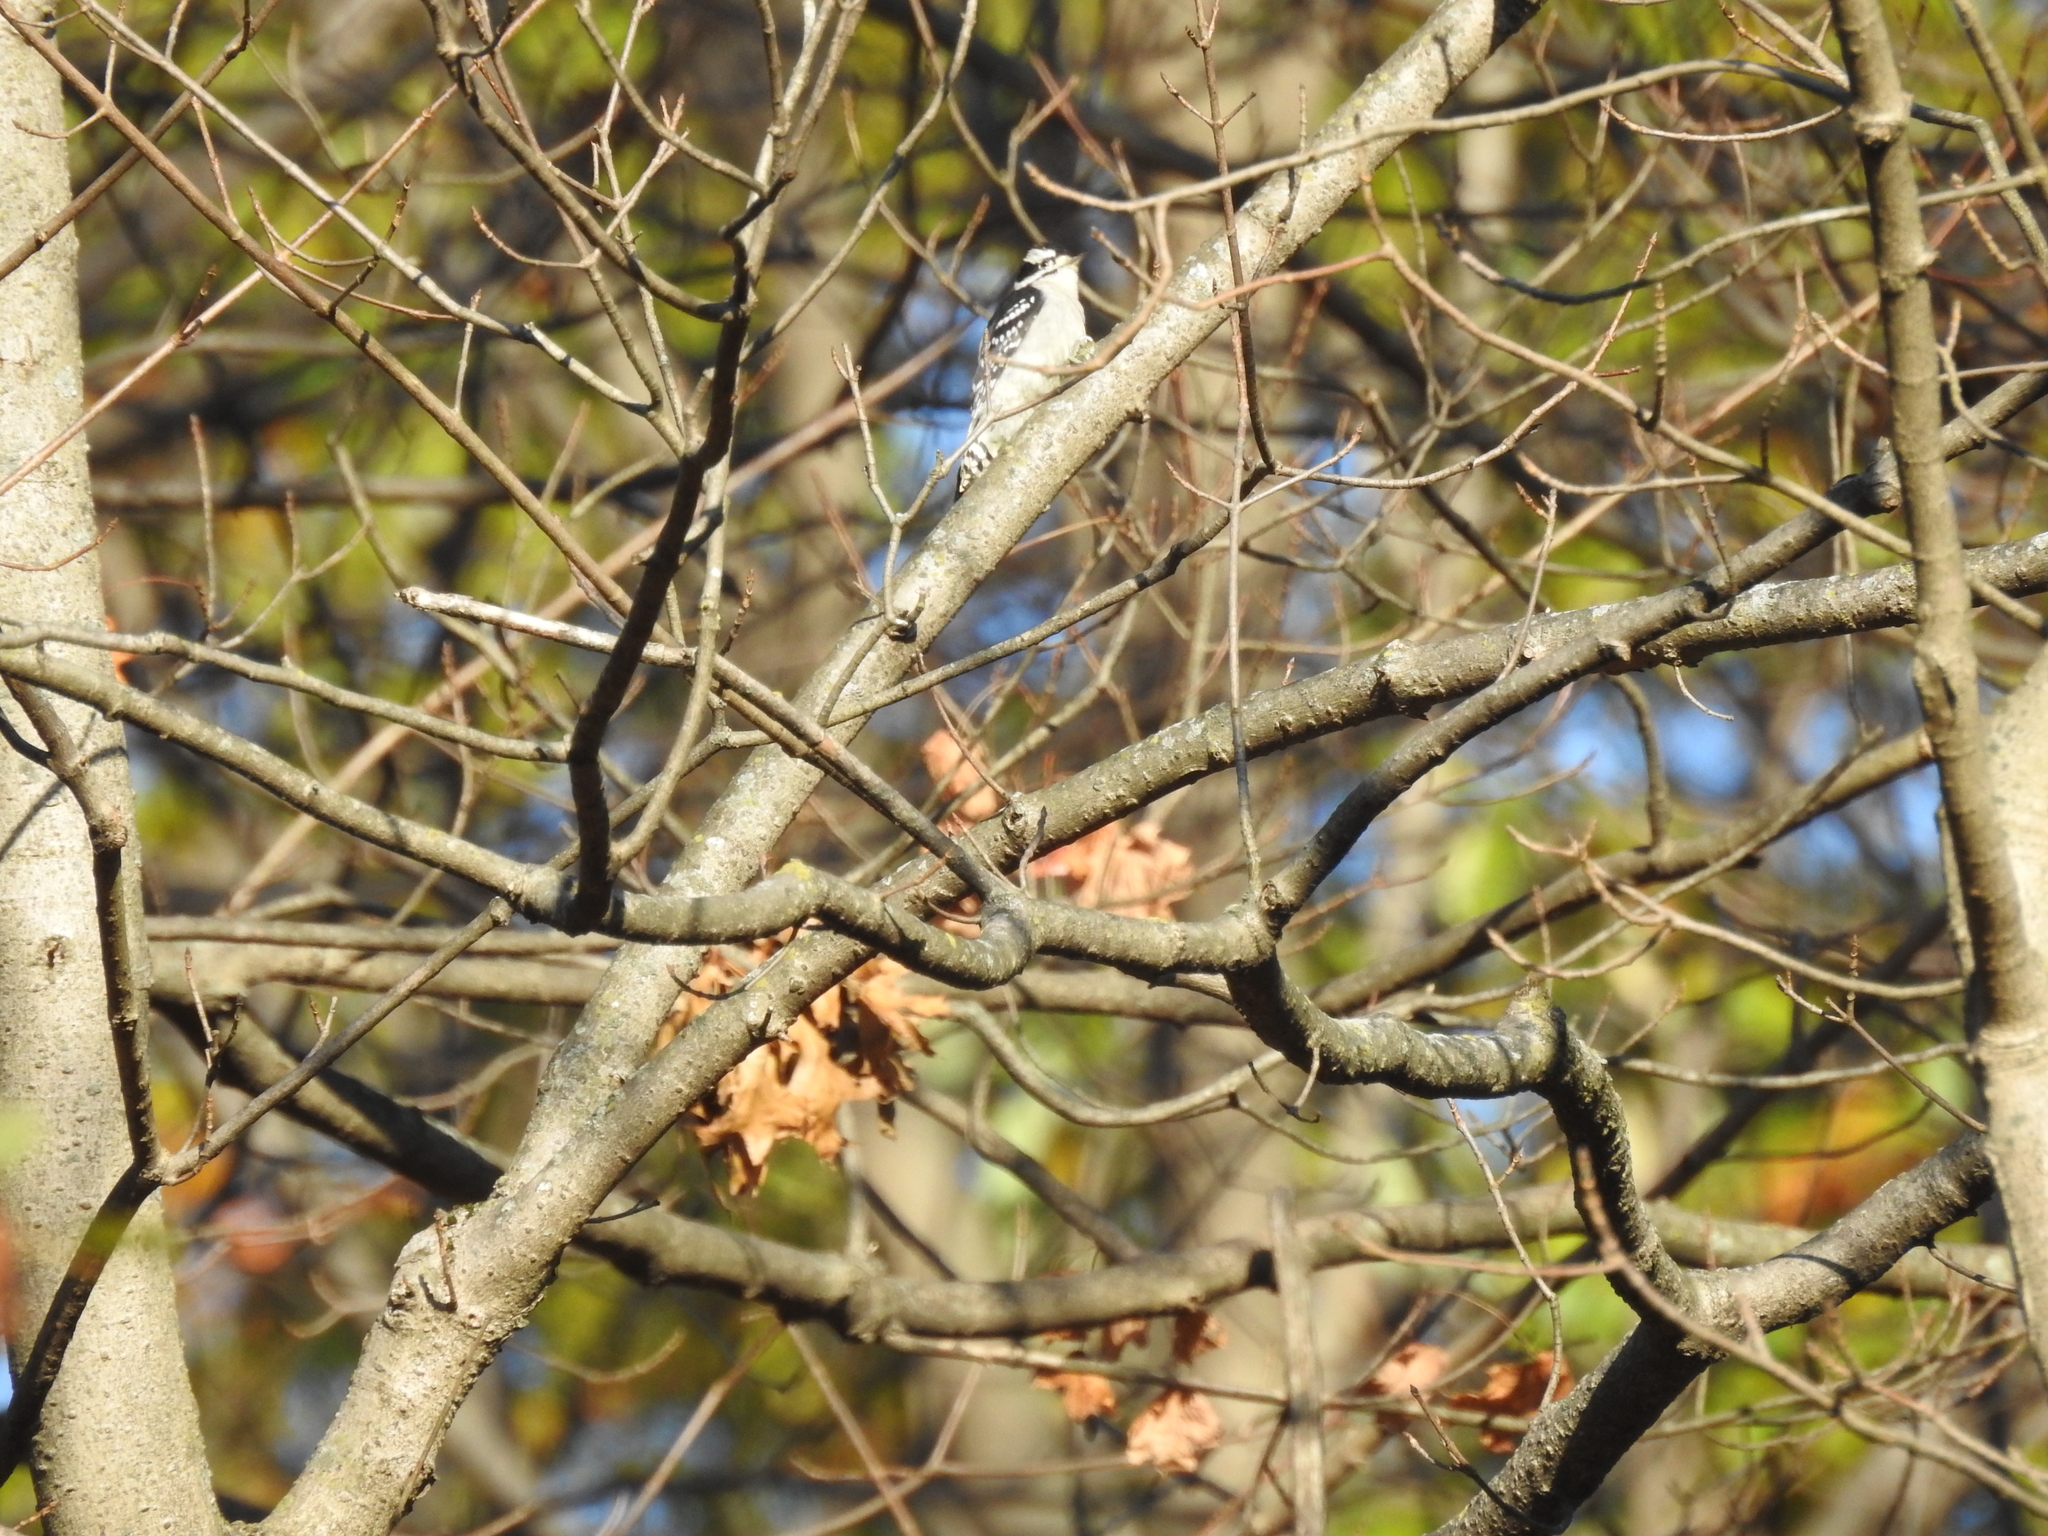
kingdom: Animalia
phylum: Chordata
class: Aves
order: Piciformes
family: Picidae
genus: Dryobates
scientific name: Dryobates pubescens
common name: Downy woodpecker
